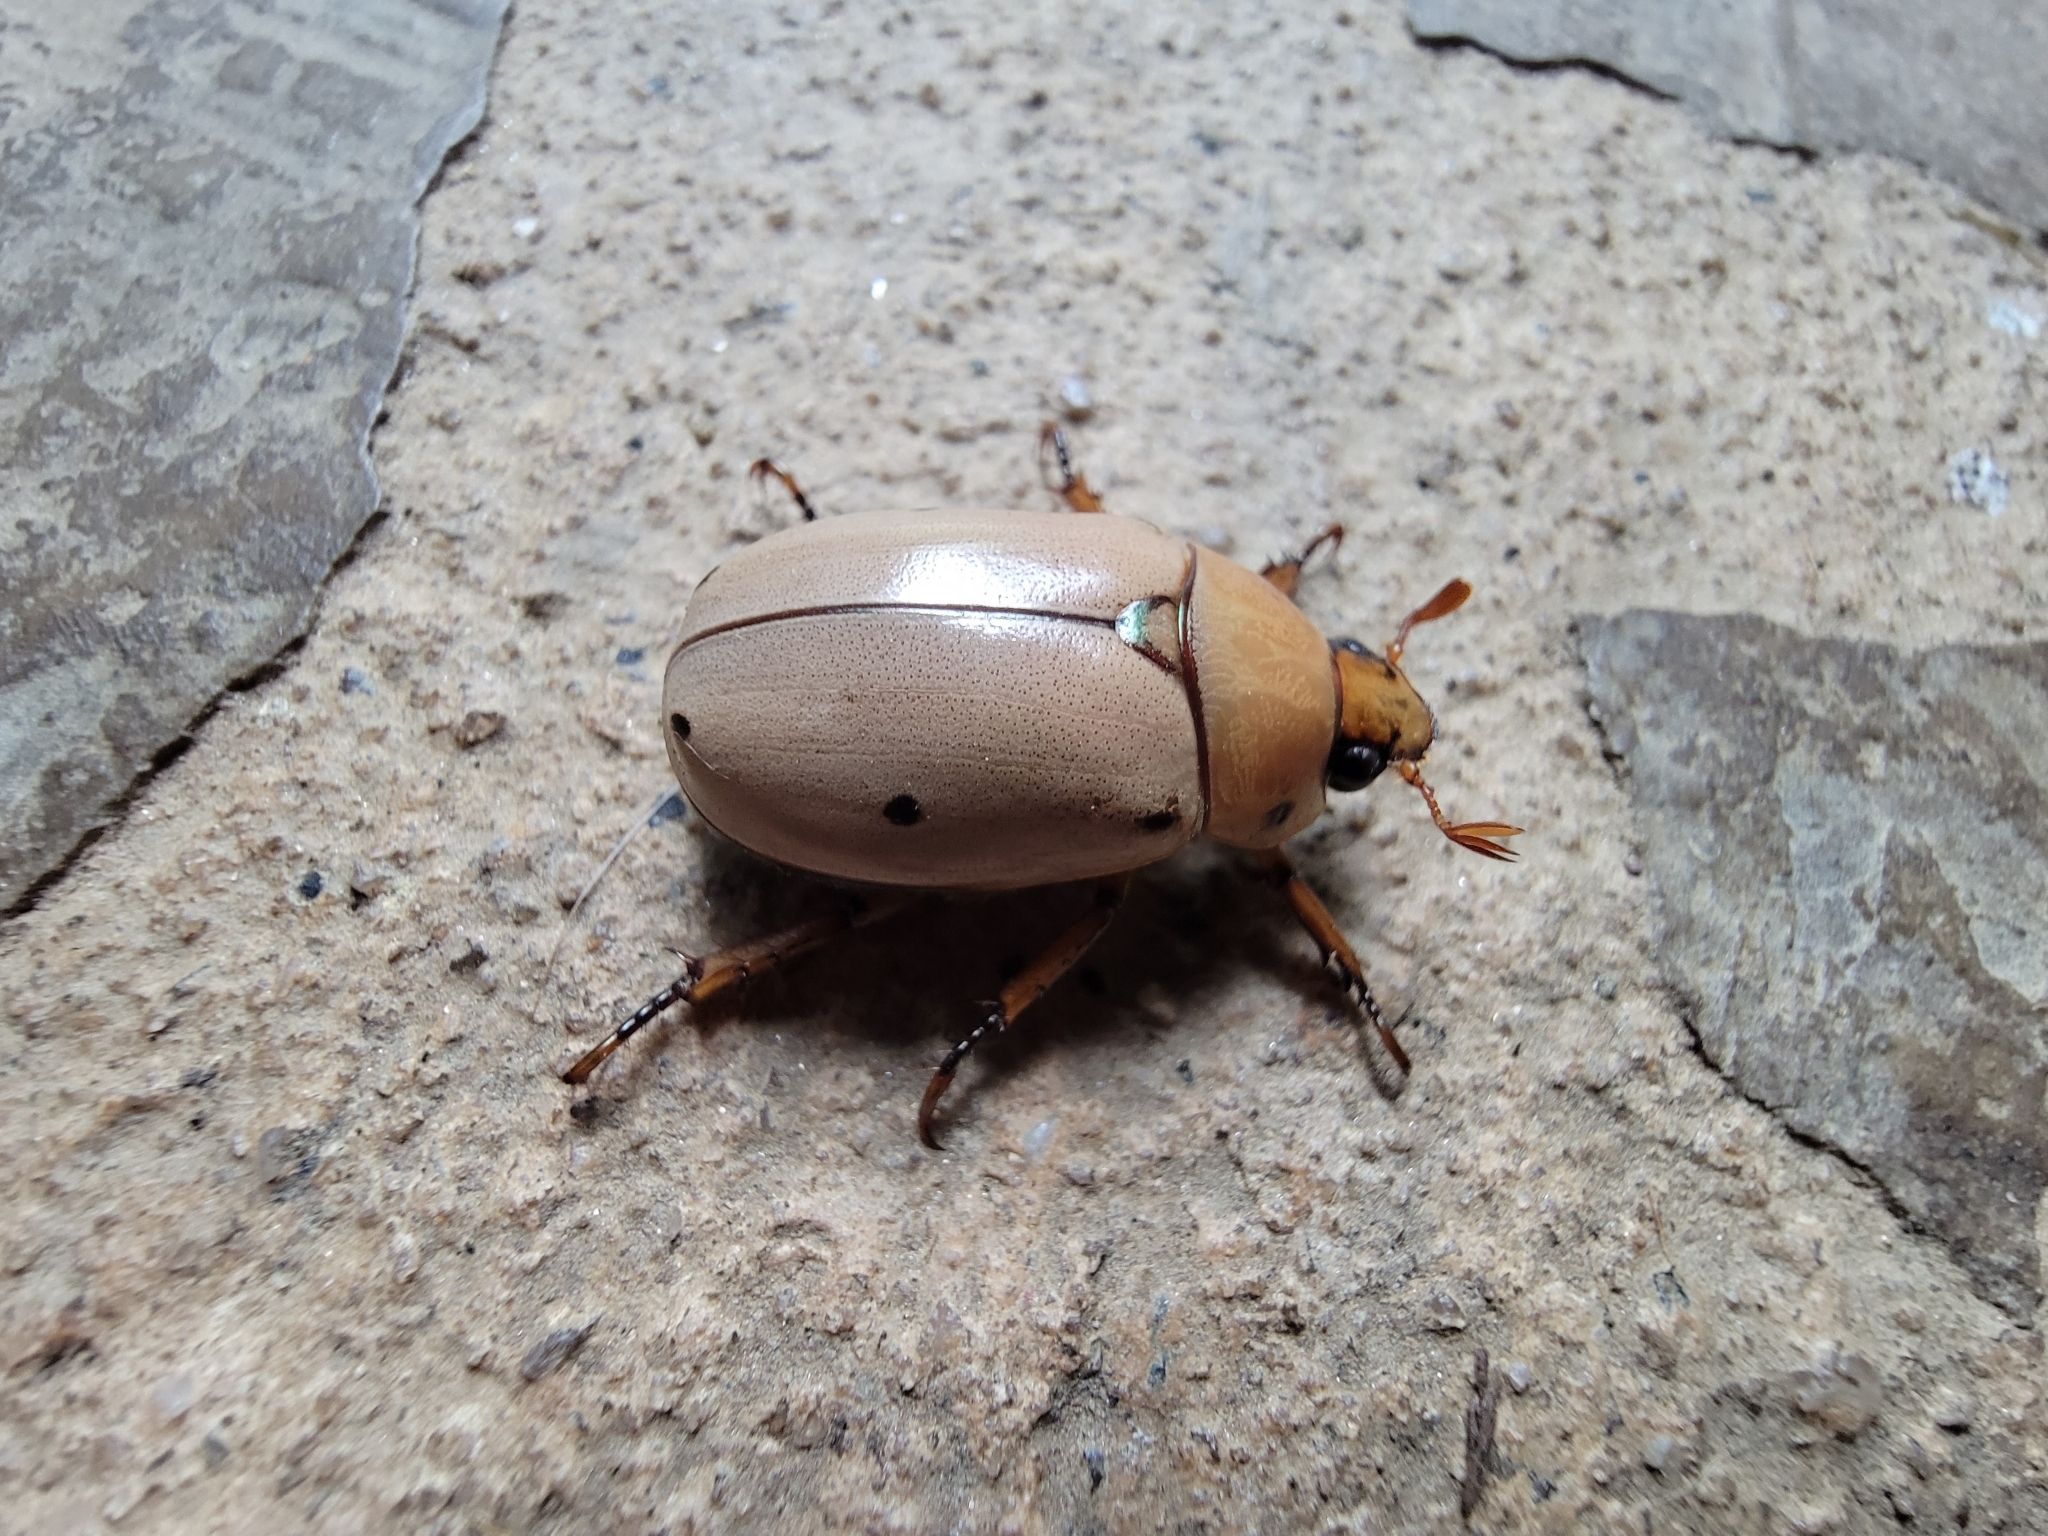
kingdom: Animalia
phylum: Arthropoda
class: Insecta
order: Coleoptera
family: Scarabaeidae
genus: Pelidnota
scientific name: Pelidnota punctata
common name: Grapevine beetle
